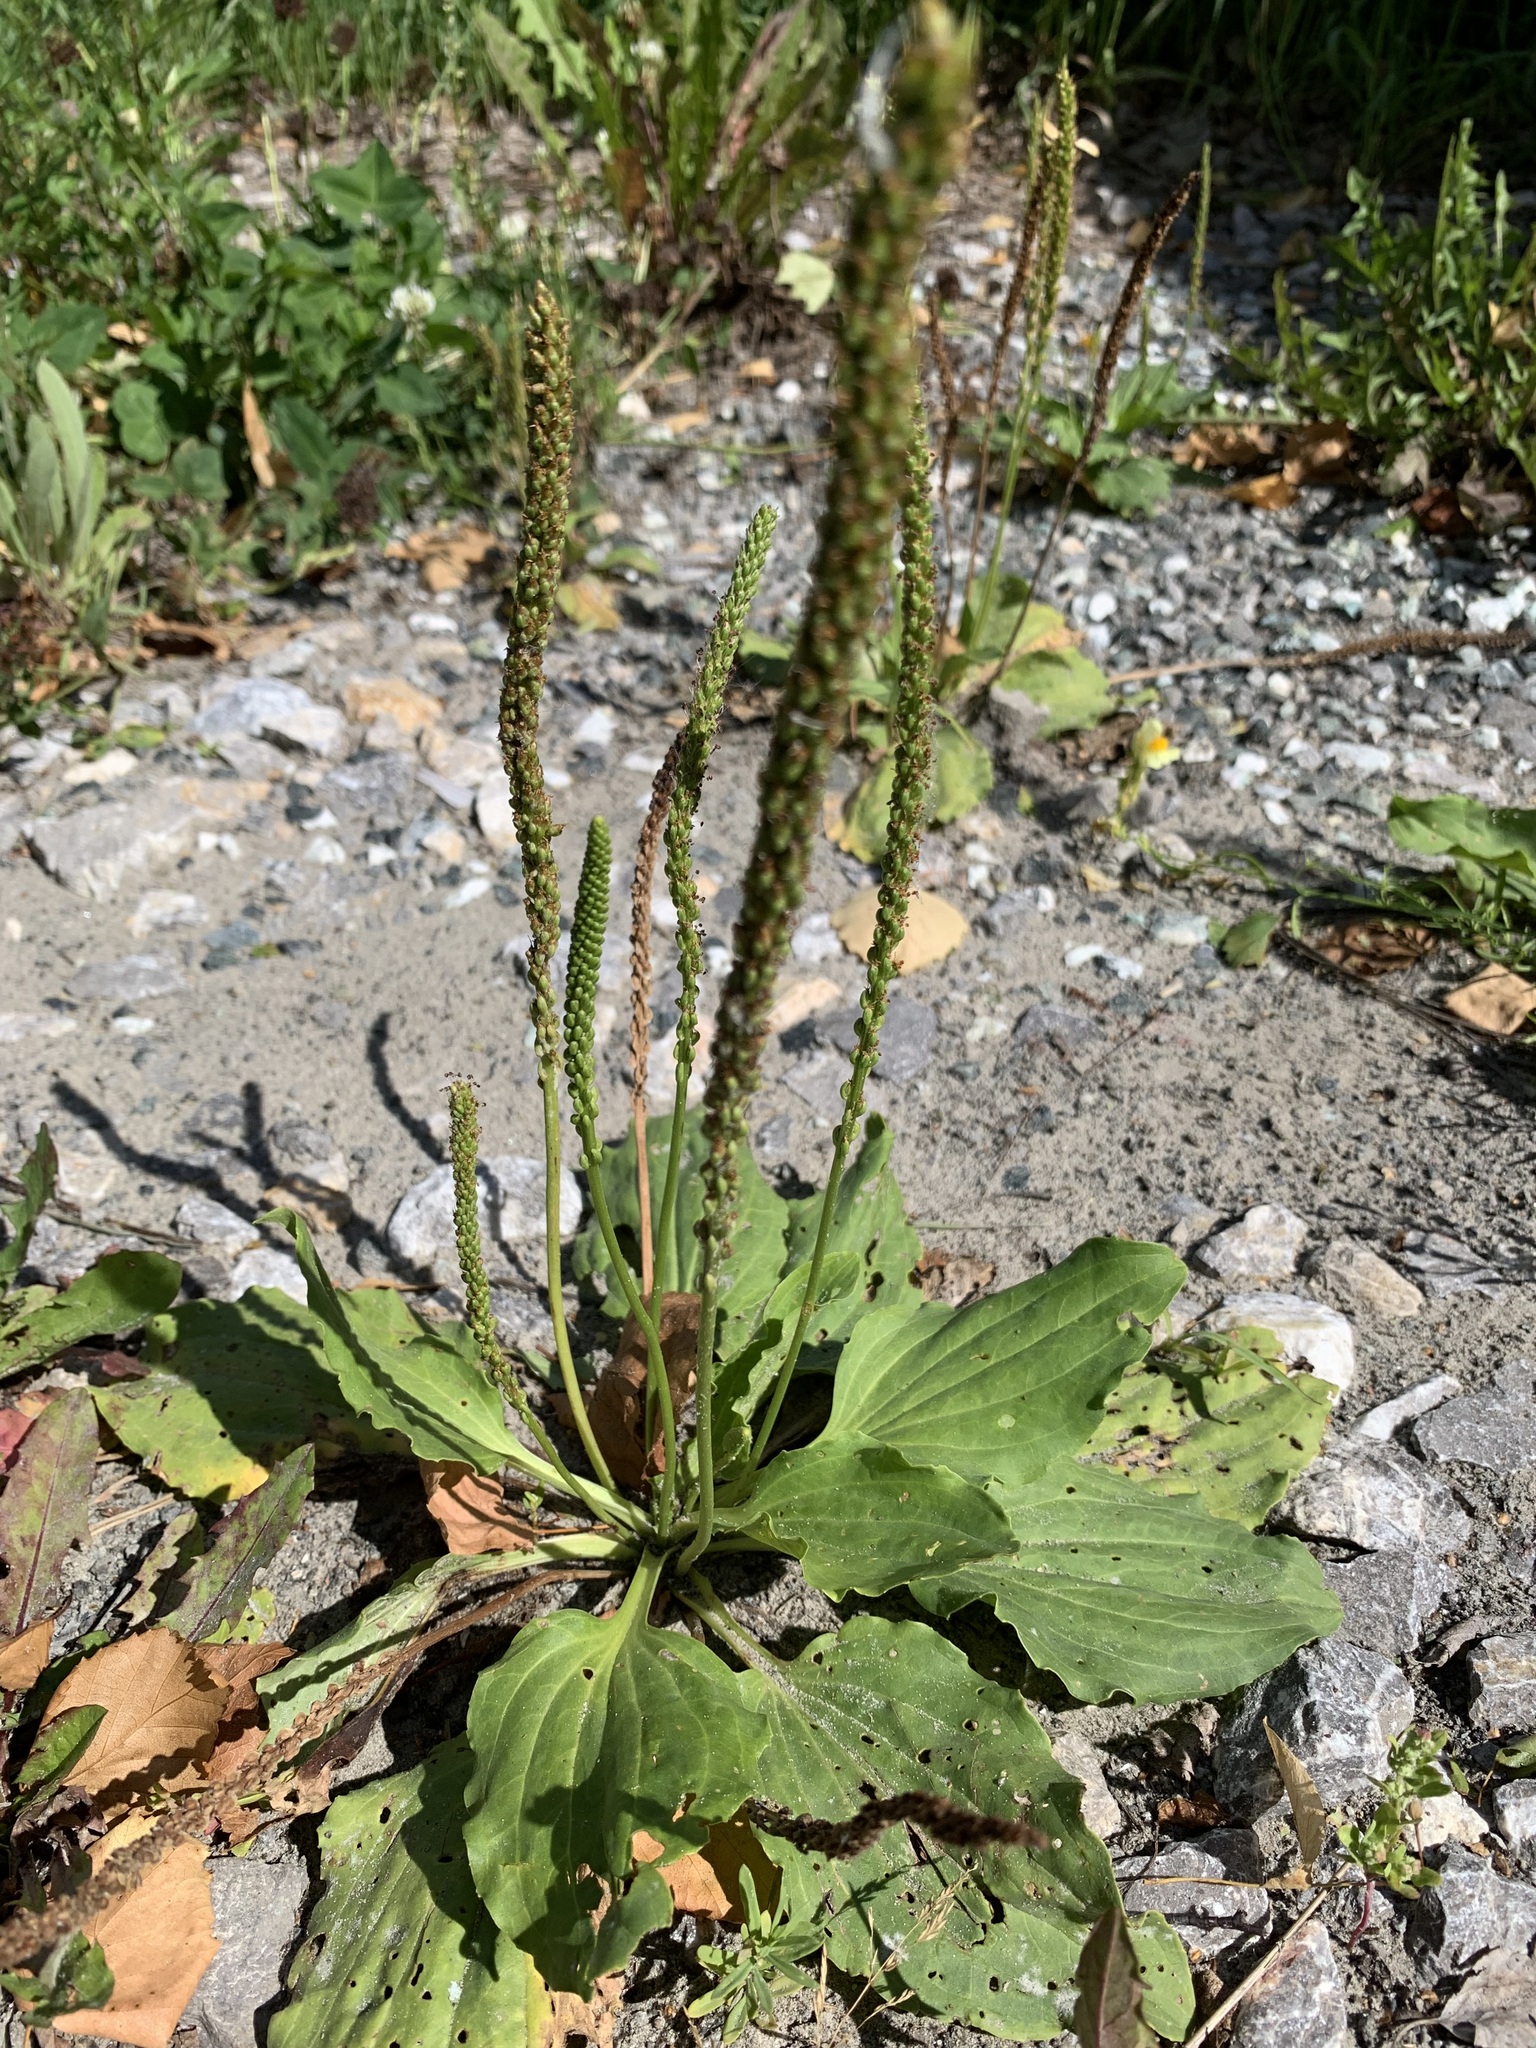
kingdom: Plantae
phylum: Tracheophyta
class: Magnoliopsida
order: Lamiales
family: Plantaginaceae
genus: Plantago
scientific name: Plantago major
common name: Common plantain
